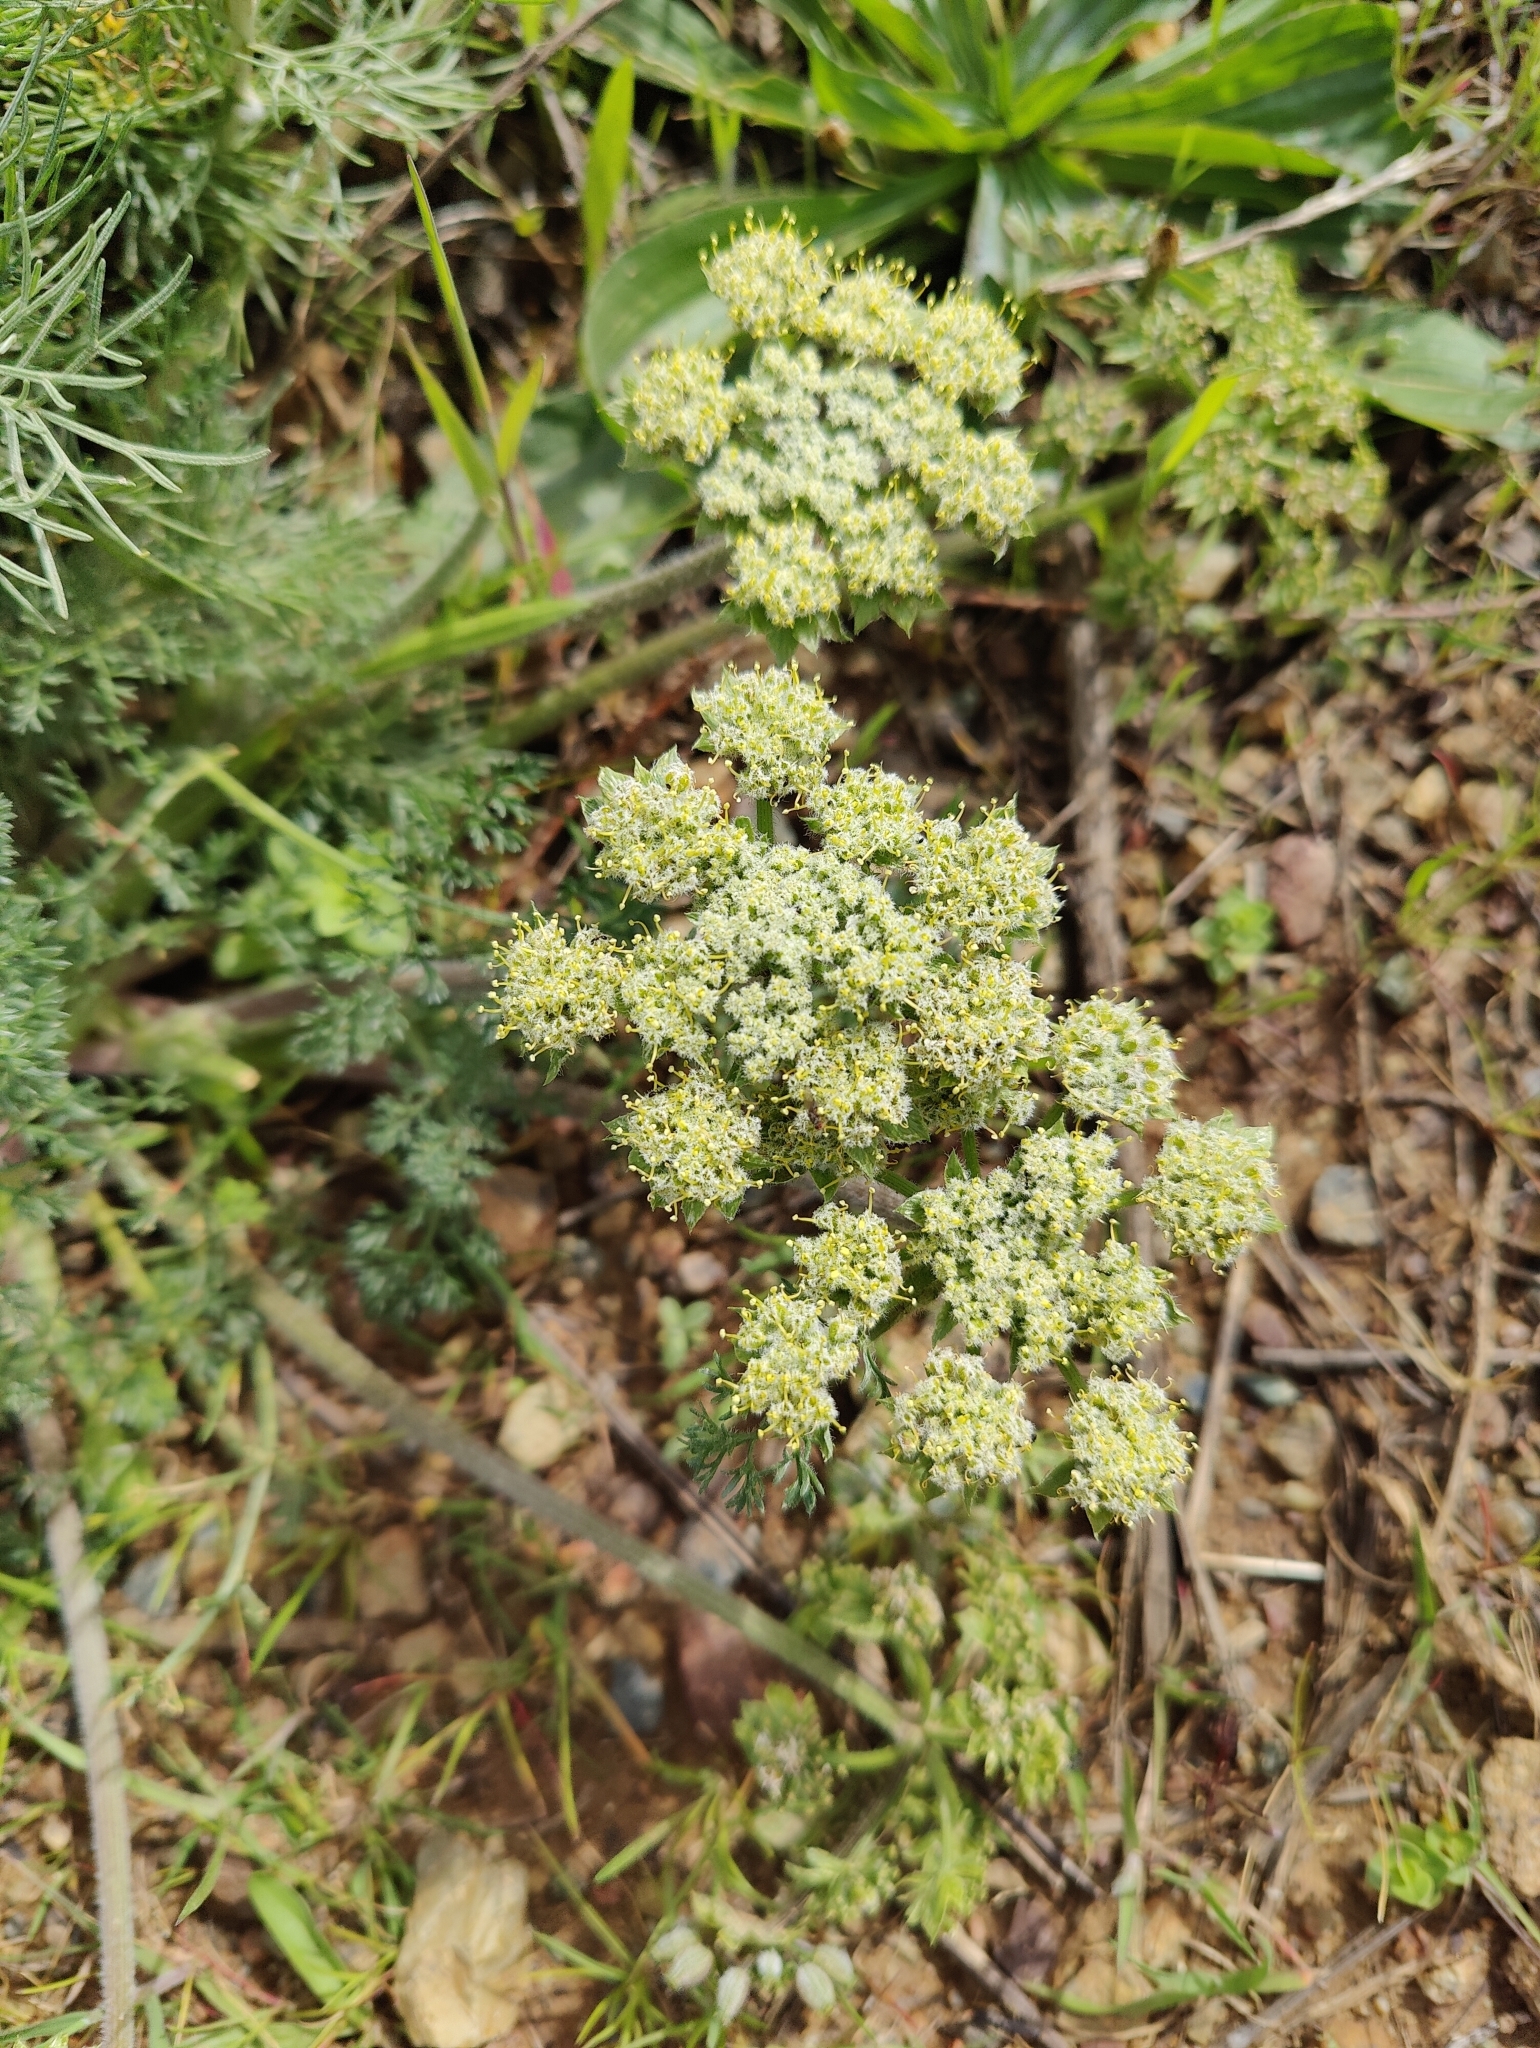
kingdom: Plantae
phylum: Tracheophyta
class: Magnoliopsida
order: Apiales
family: Apiaceae
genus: Lomatium
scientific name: Lomatium dasycarpum
